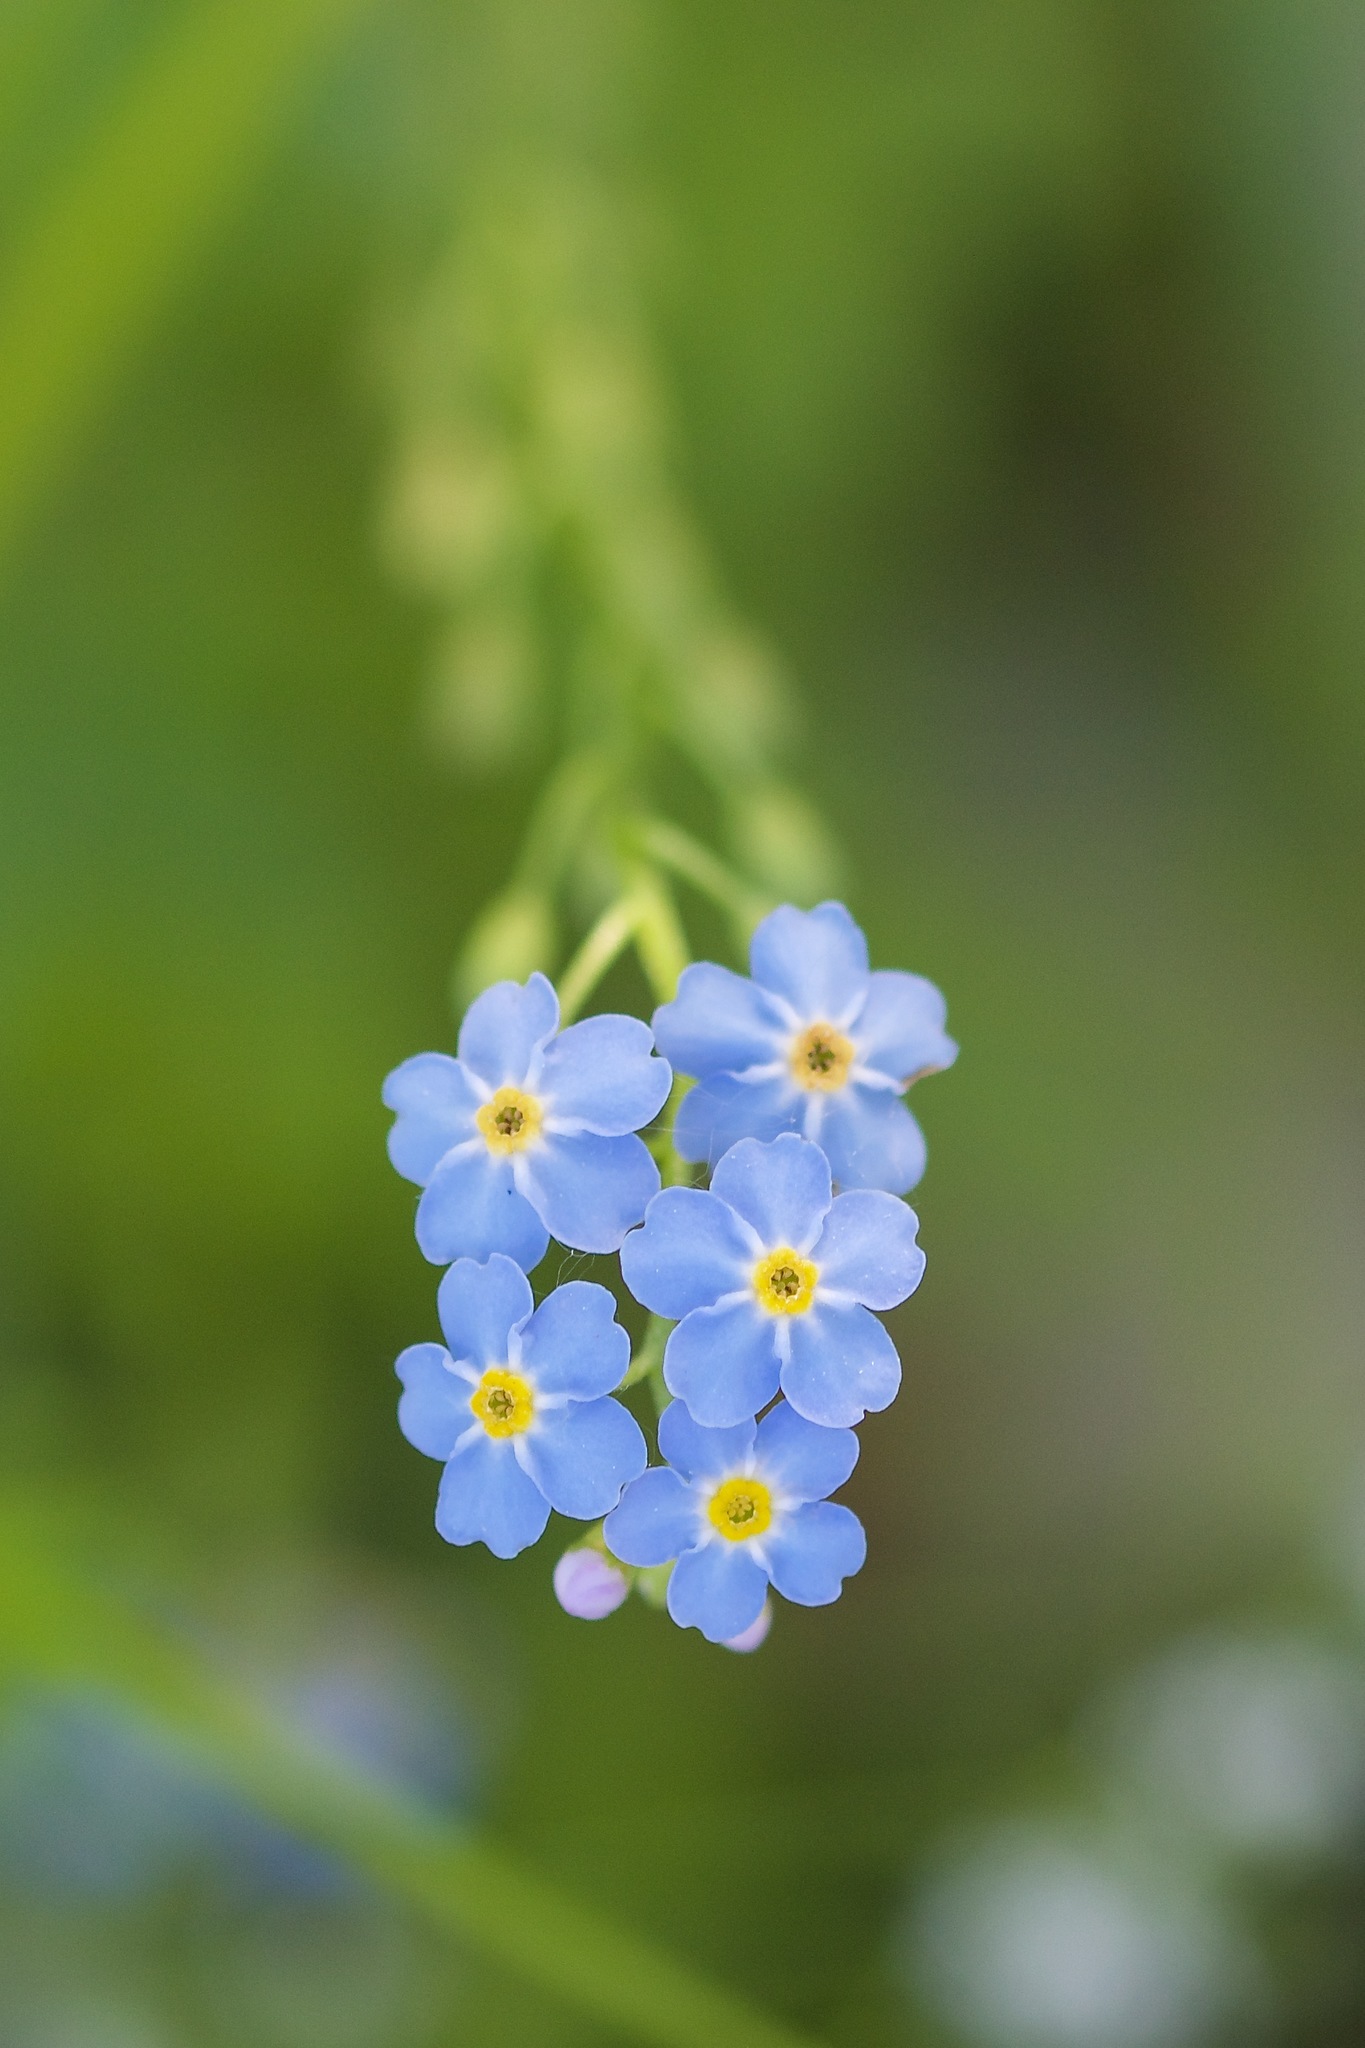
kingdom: Plantae
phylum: Tracheophyta
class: Magnoliopsida
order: Boraginales
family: Boraginaceae
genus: Myosotis
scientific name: Myosotis scorpioides
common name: Water forget-me-not
